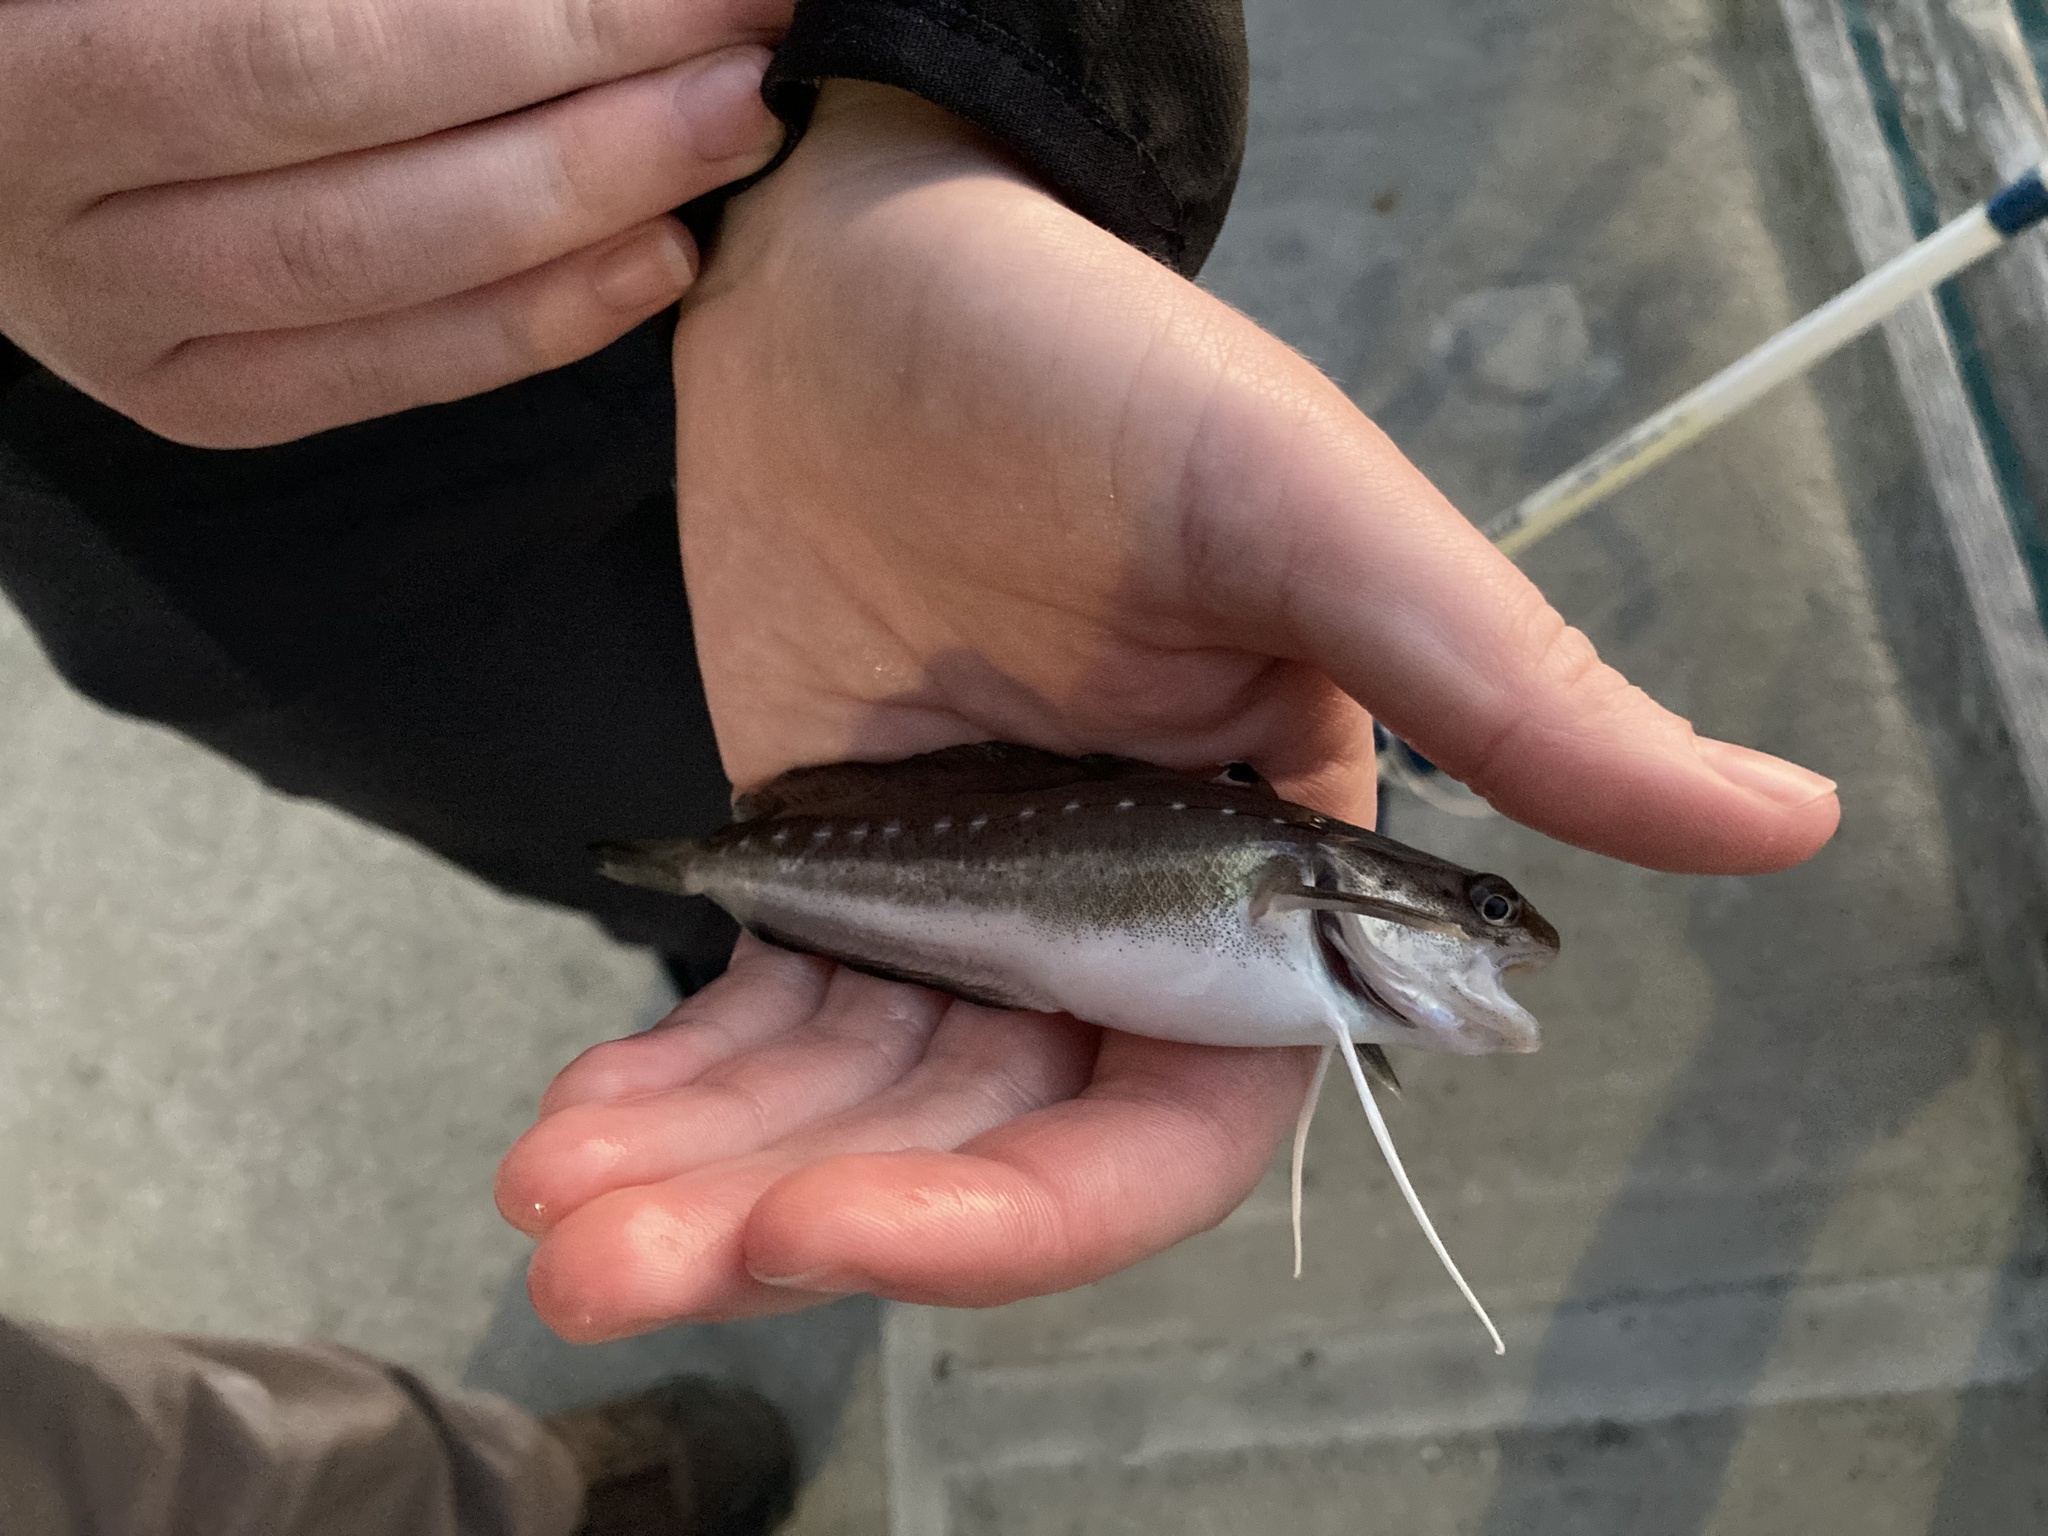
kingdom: Animalia
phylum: Chordata
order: Gadiformes
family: Phycidae
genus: Urophycis
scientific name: Urophycis regia
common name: Spotted codling
